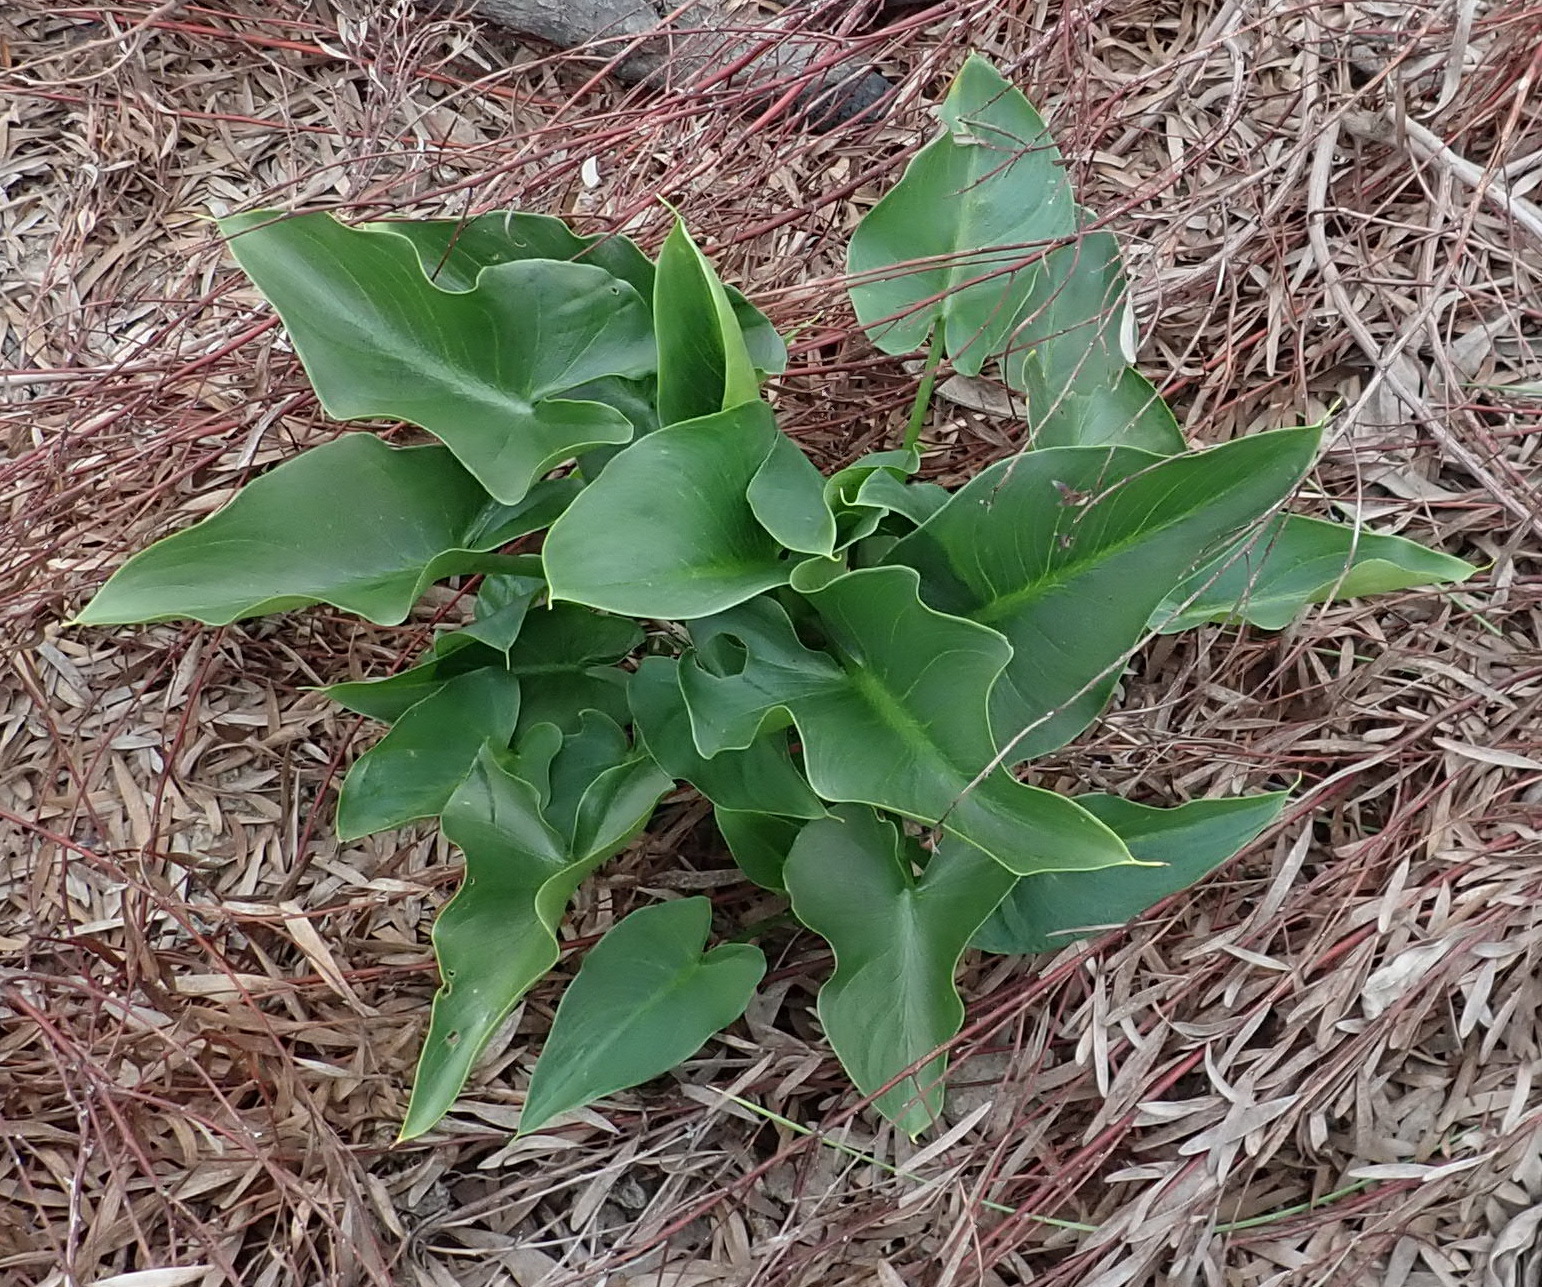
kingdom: Plantae
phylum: Tracheophyta
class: Liliopsida
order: Alismatales
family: Araceae
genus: Zantedeschia
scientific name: Zantedeschia aethiopica
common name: Altar-lily
